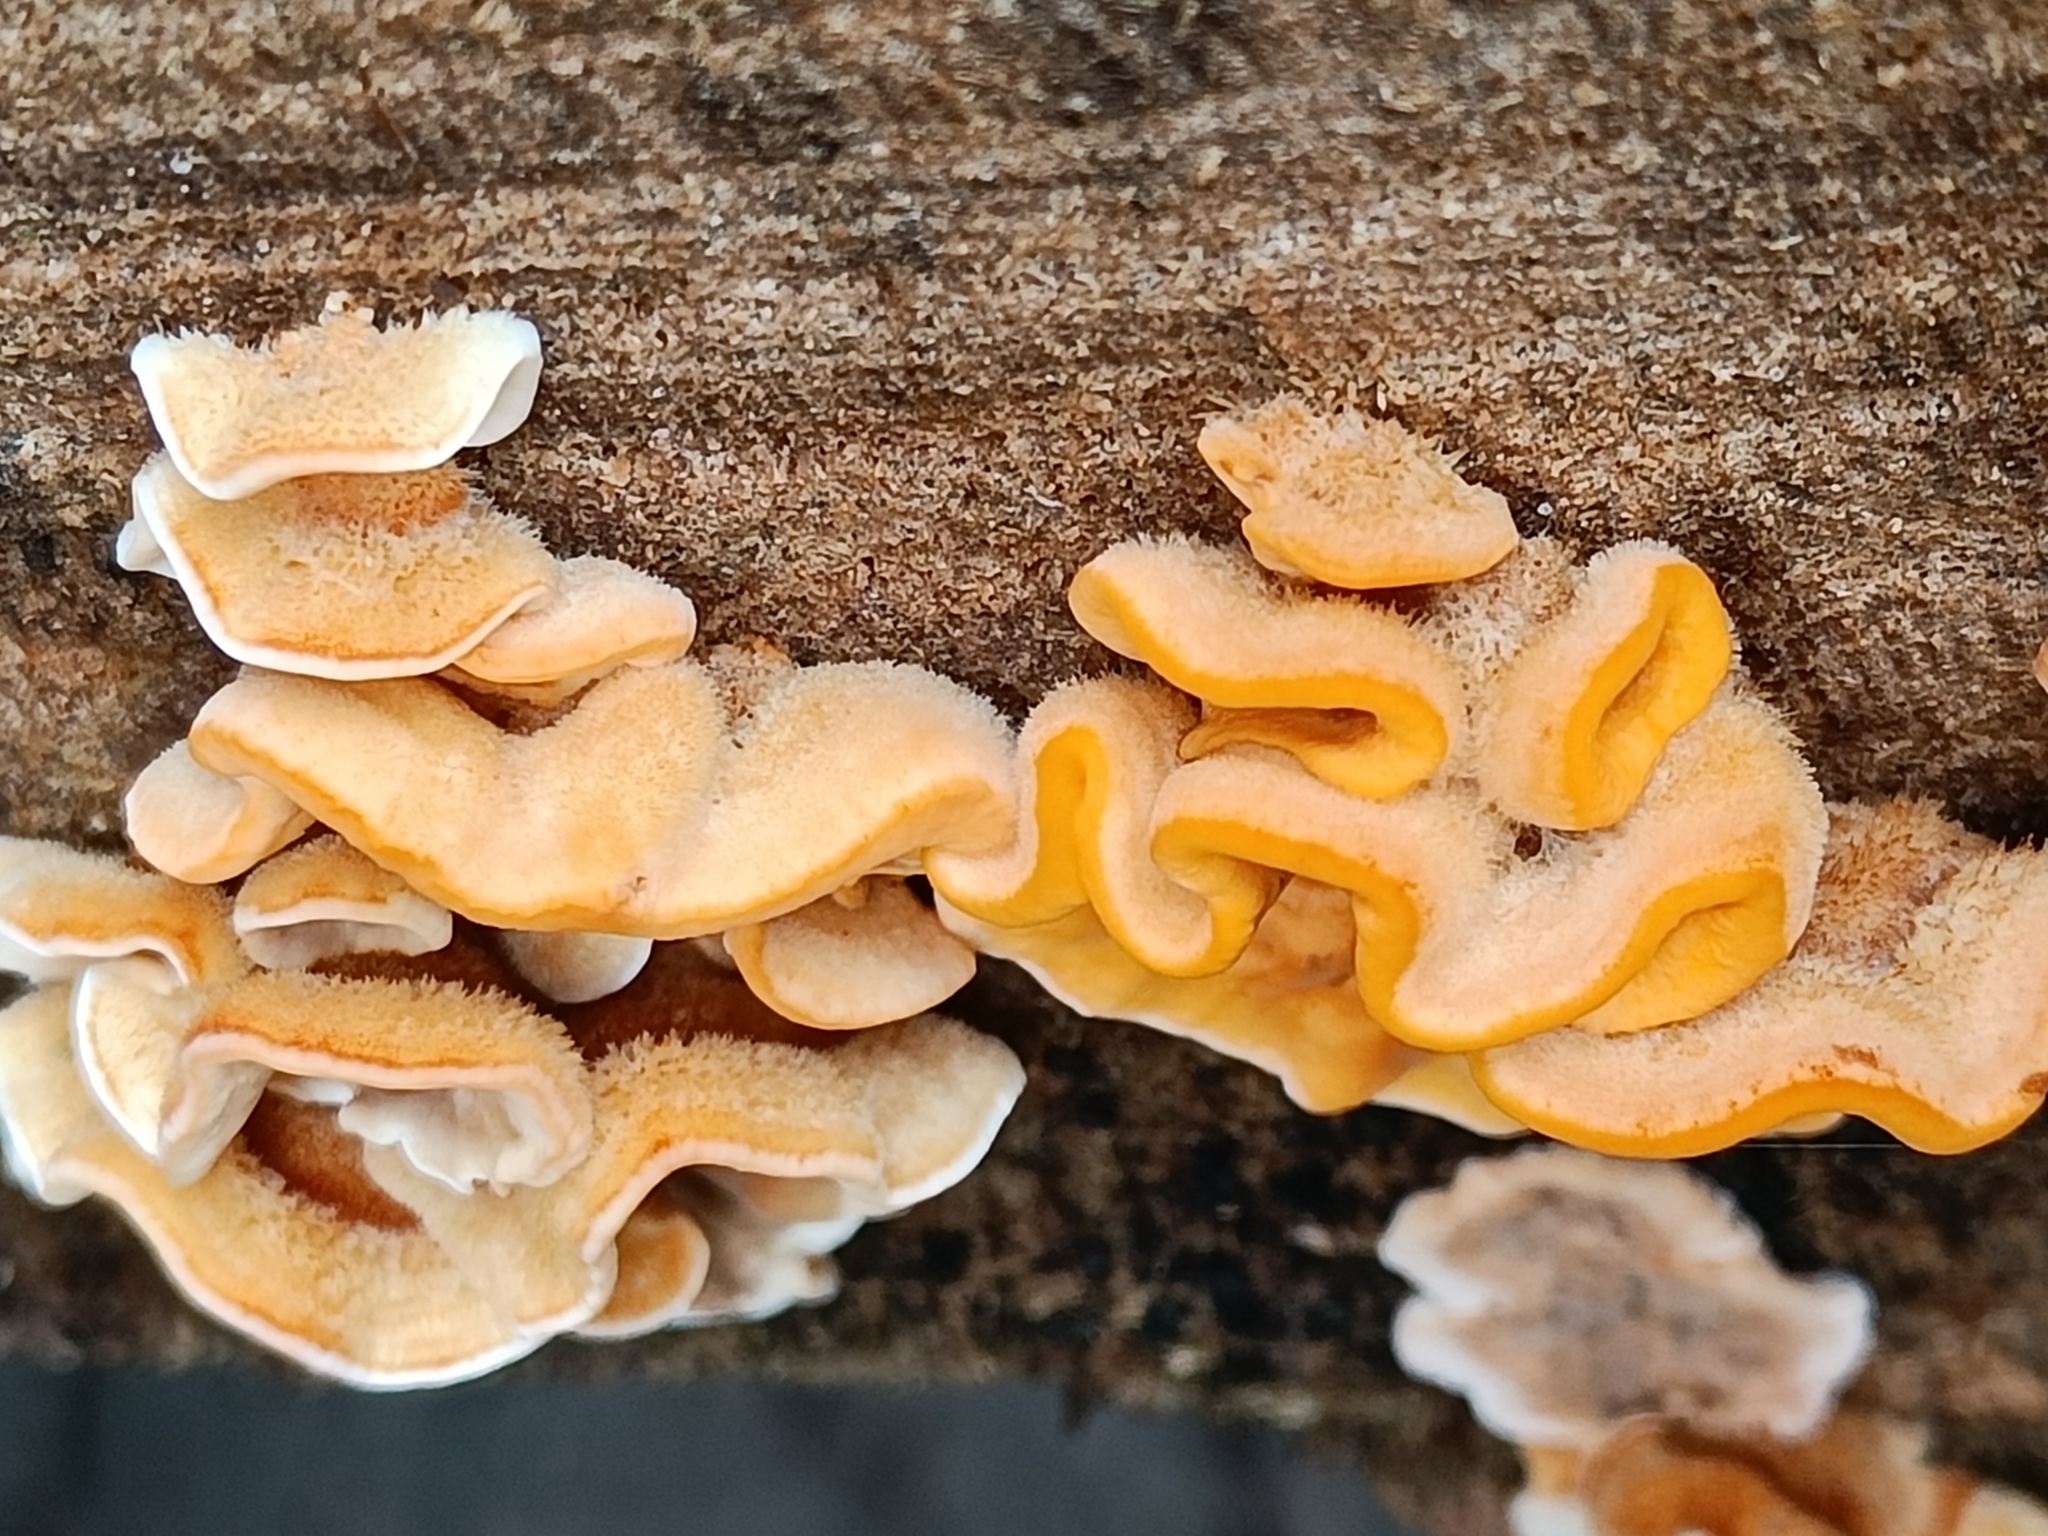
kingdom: Fungi
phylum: Basidiomycota
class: Agaricomycetes
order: Russulales
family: Stereaceae
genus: Stereum
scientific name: Stereum hirsutum
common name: Hairy curtain crust
